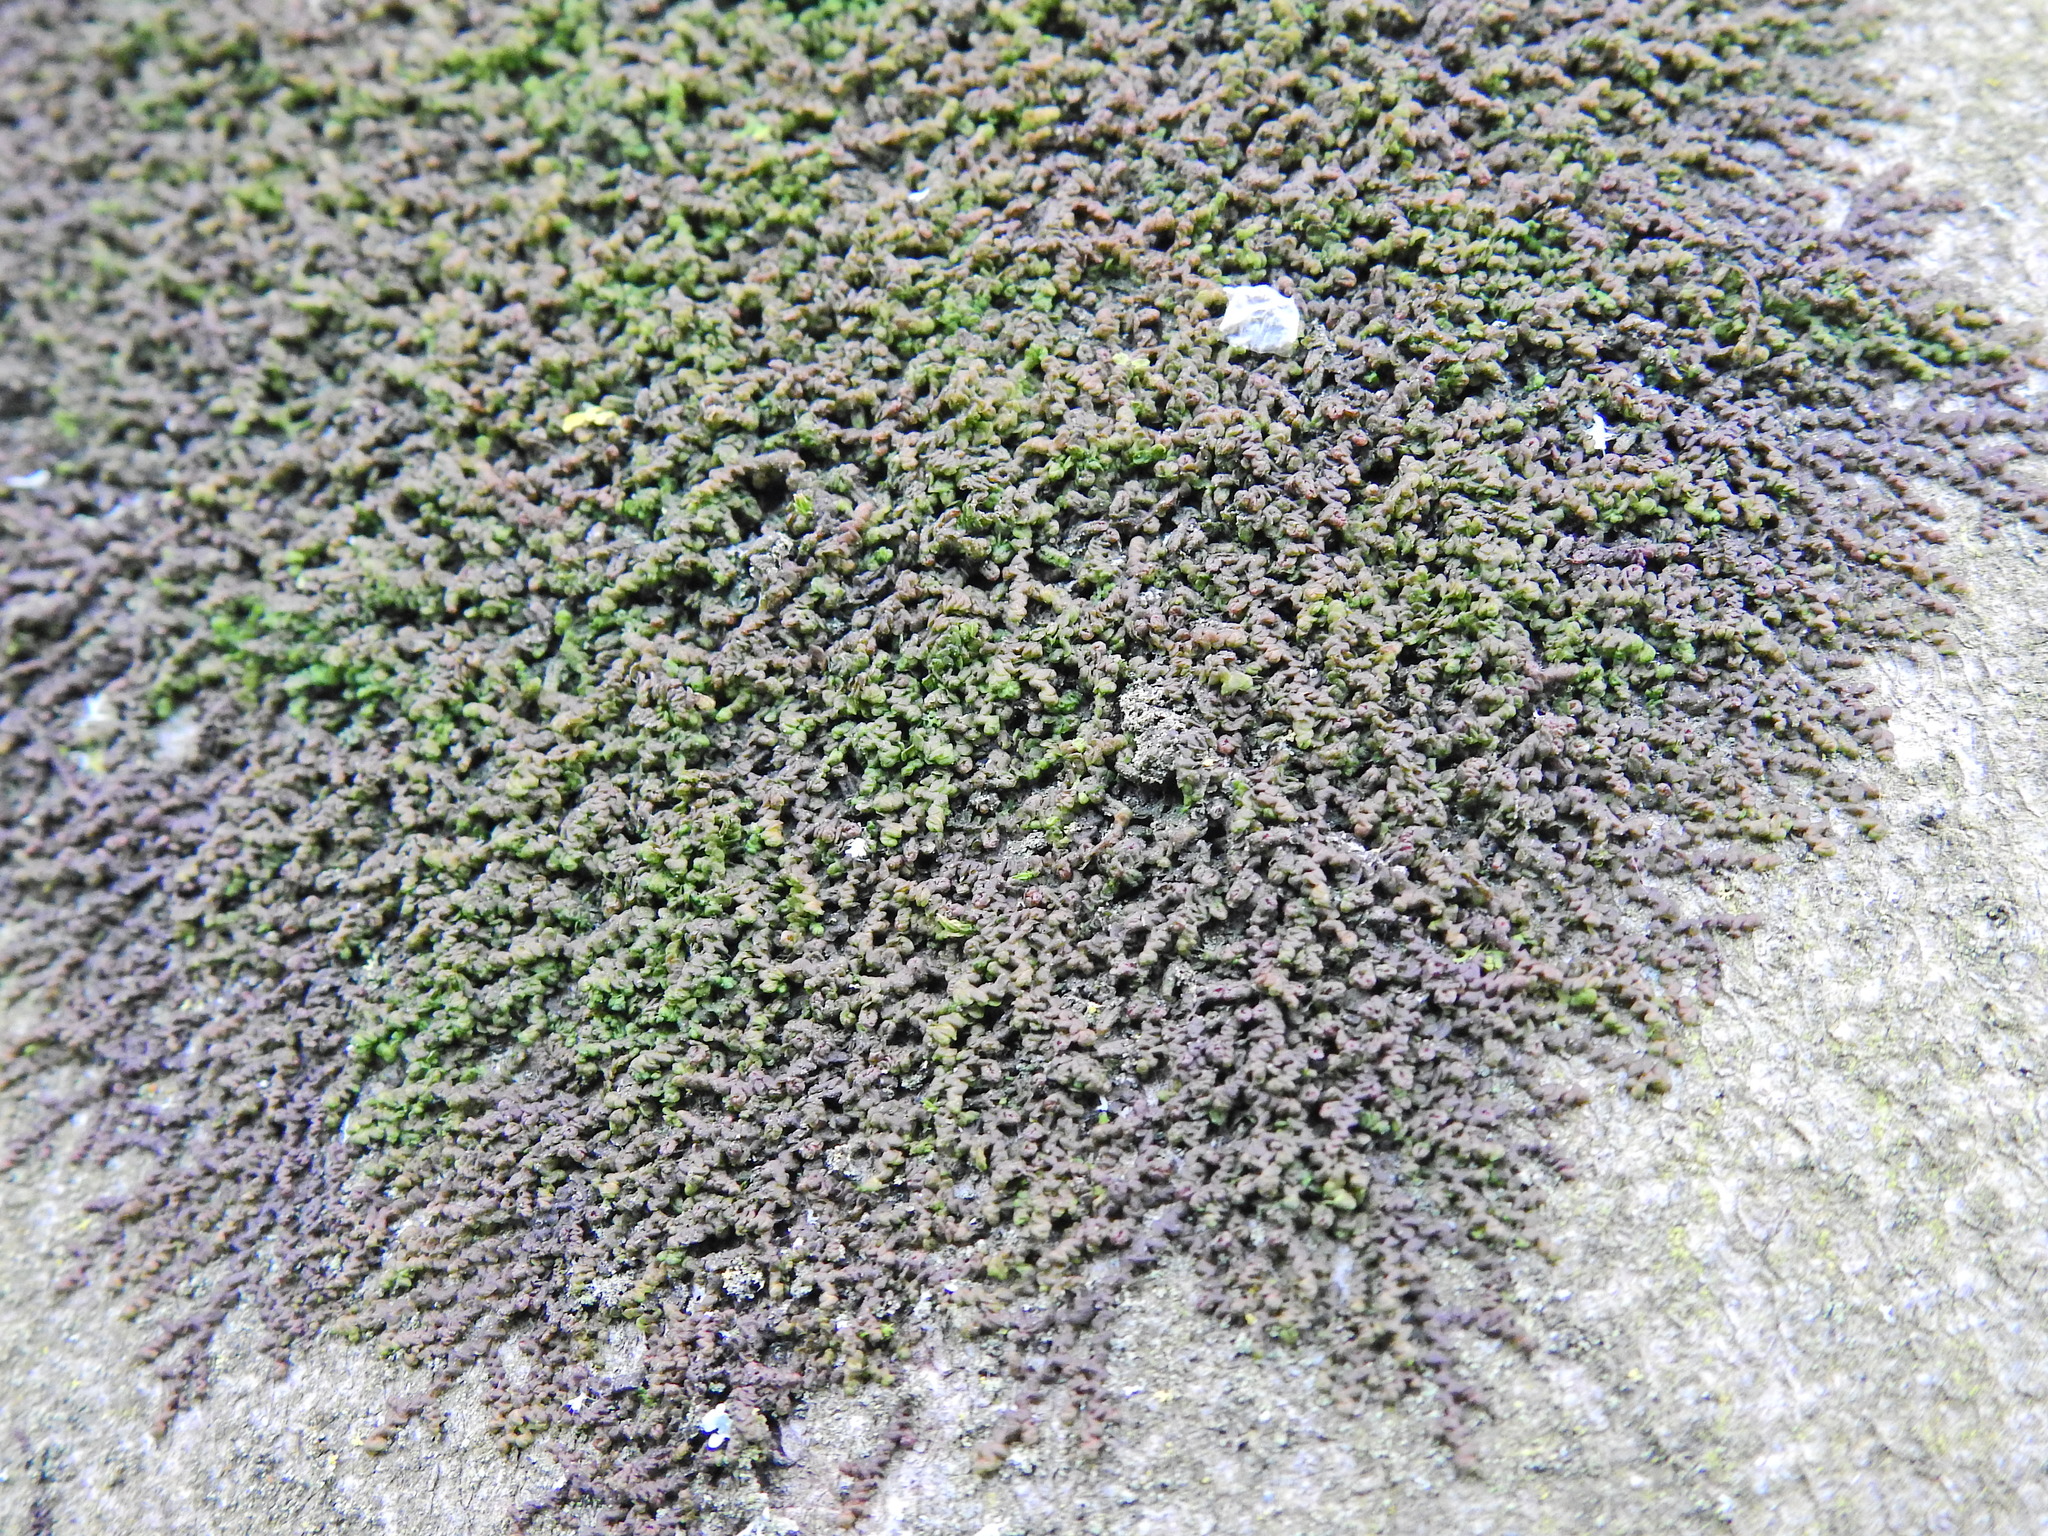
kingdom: Plantae
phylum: Marchantiophyta
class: Jungermanniopsida
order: Porellales
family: Frullaniaceae
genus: Frullania
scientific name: Frullania dilatata
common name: Dilated scalewort
